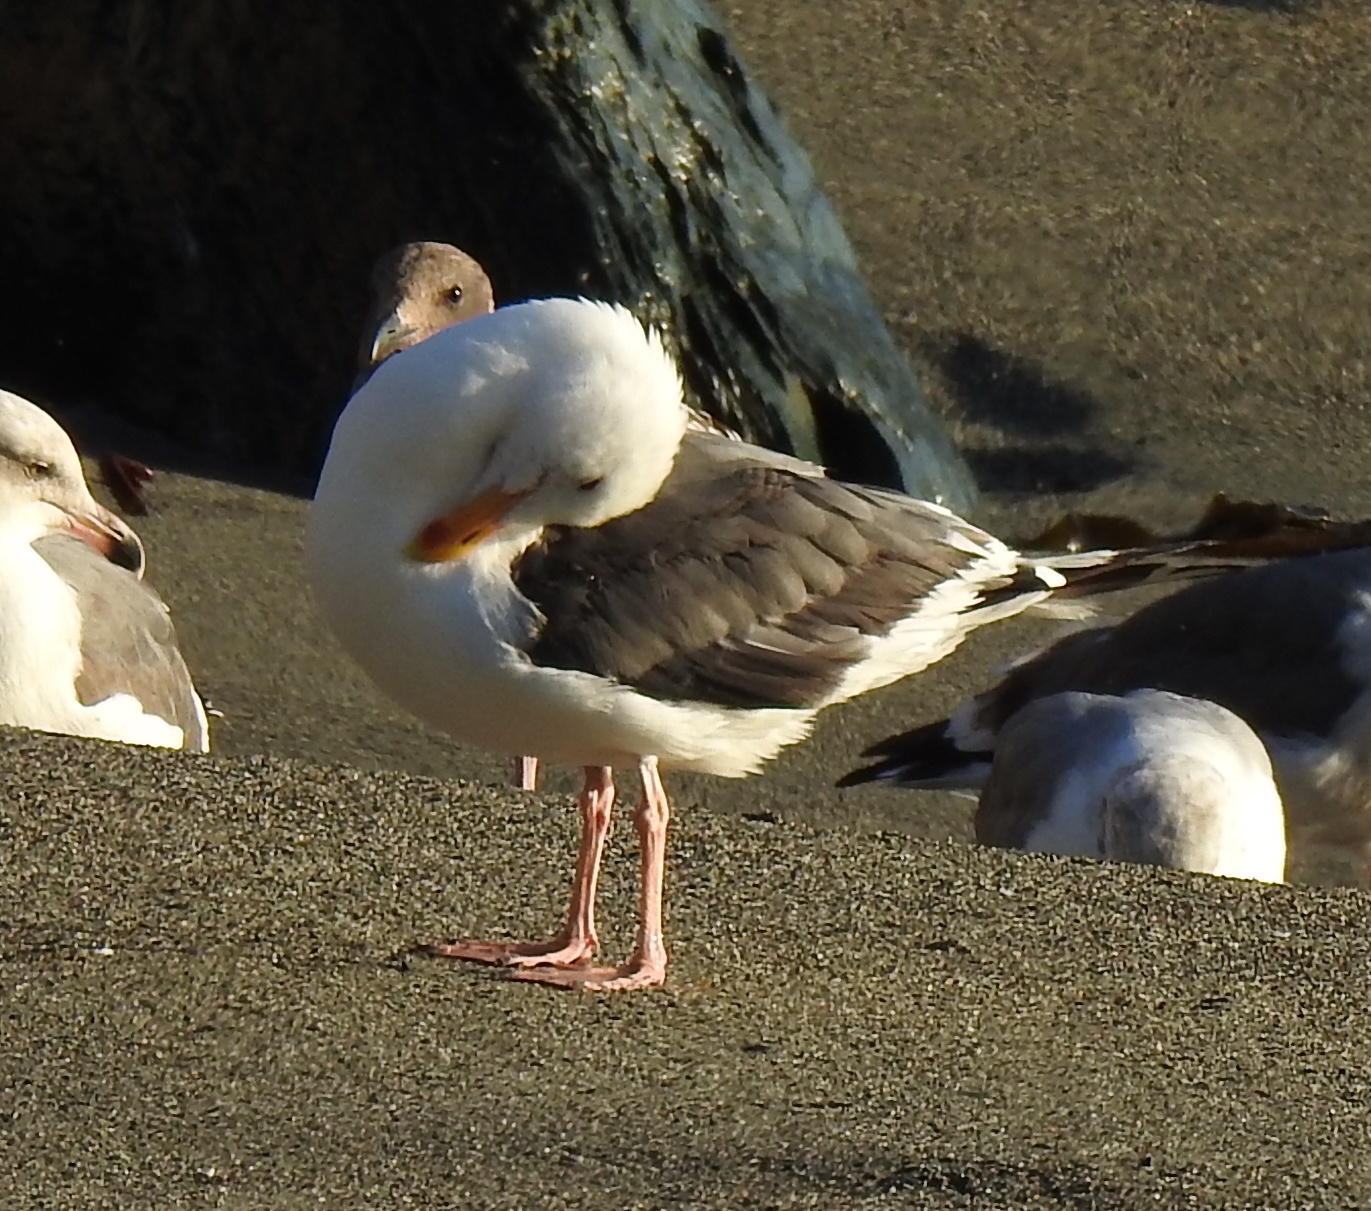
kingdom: Animalia
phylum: Chordata
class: Aves
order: Charadriiformes
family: Laridae
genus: Larus
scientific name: Larus occidentalis
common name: Western gull
